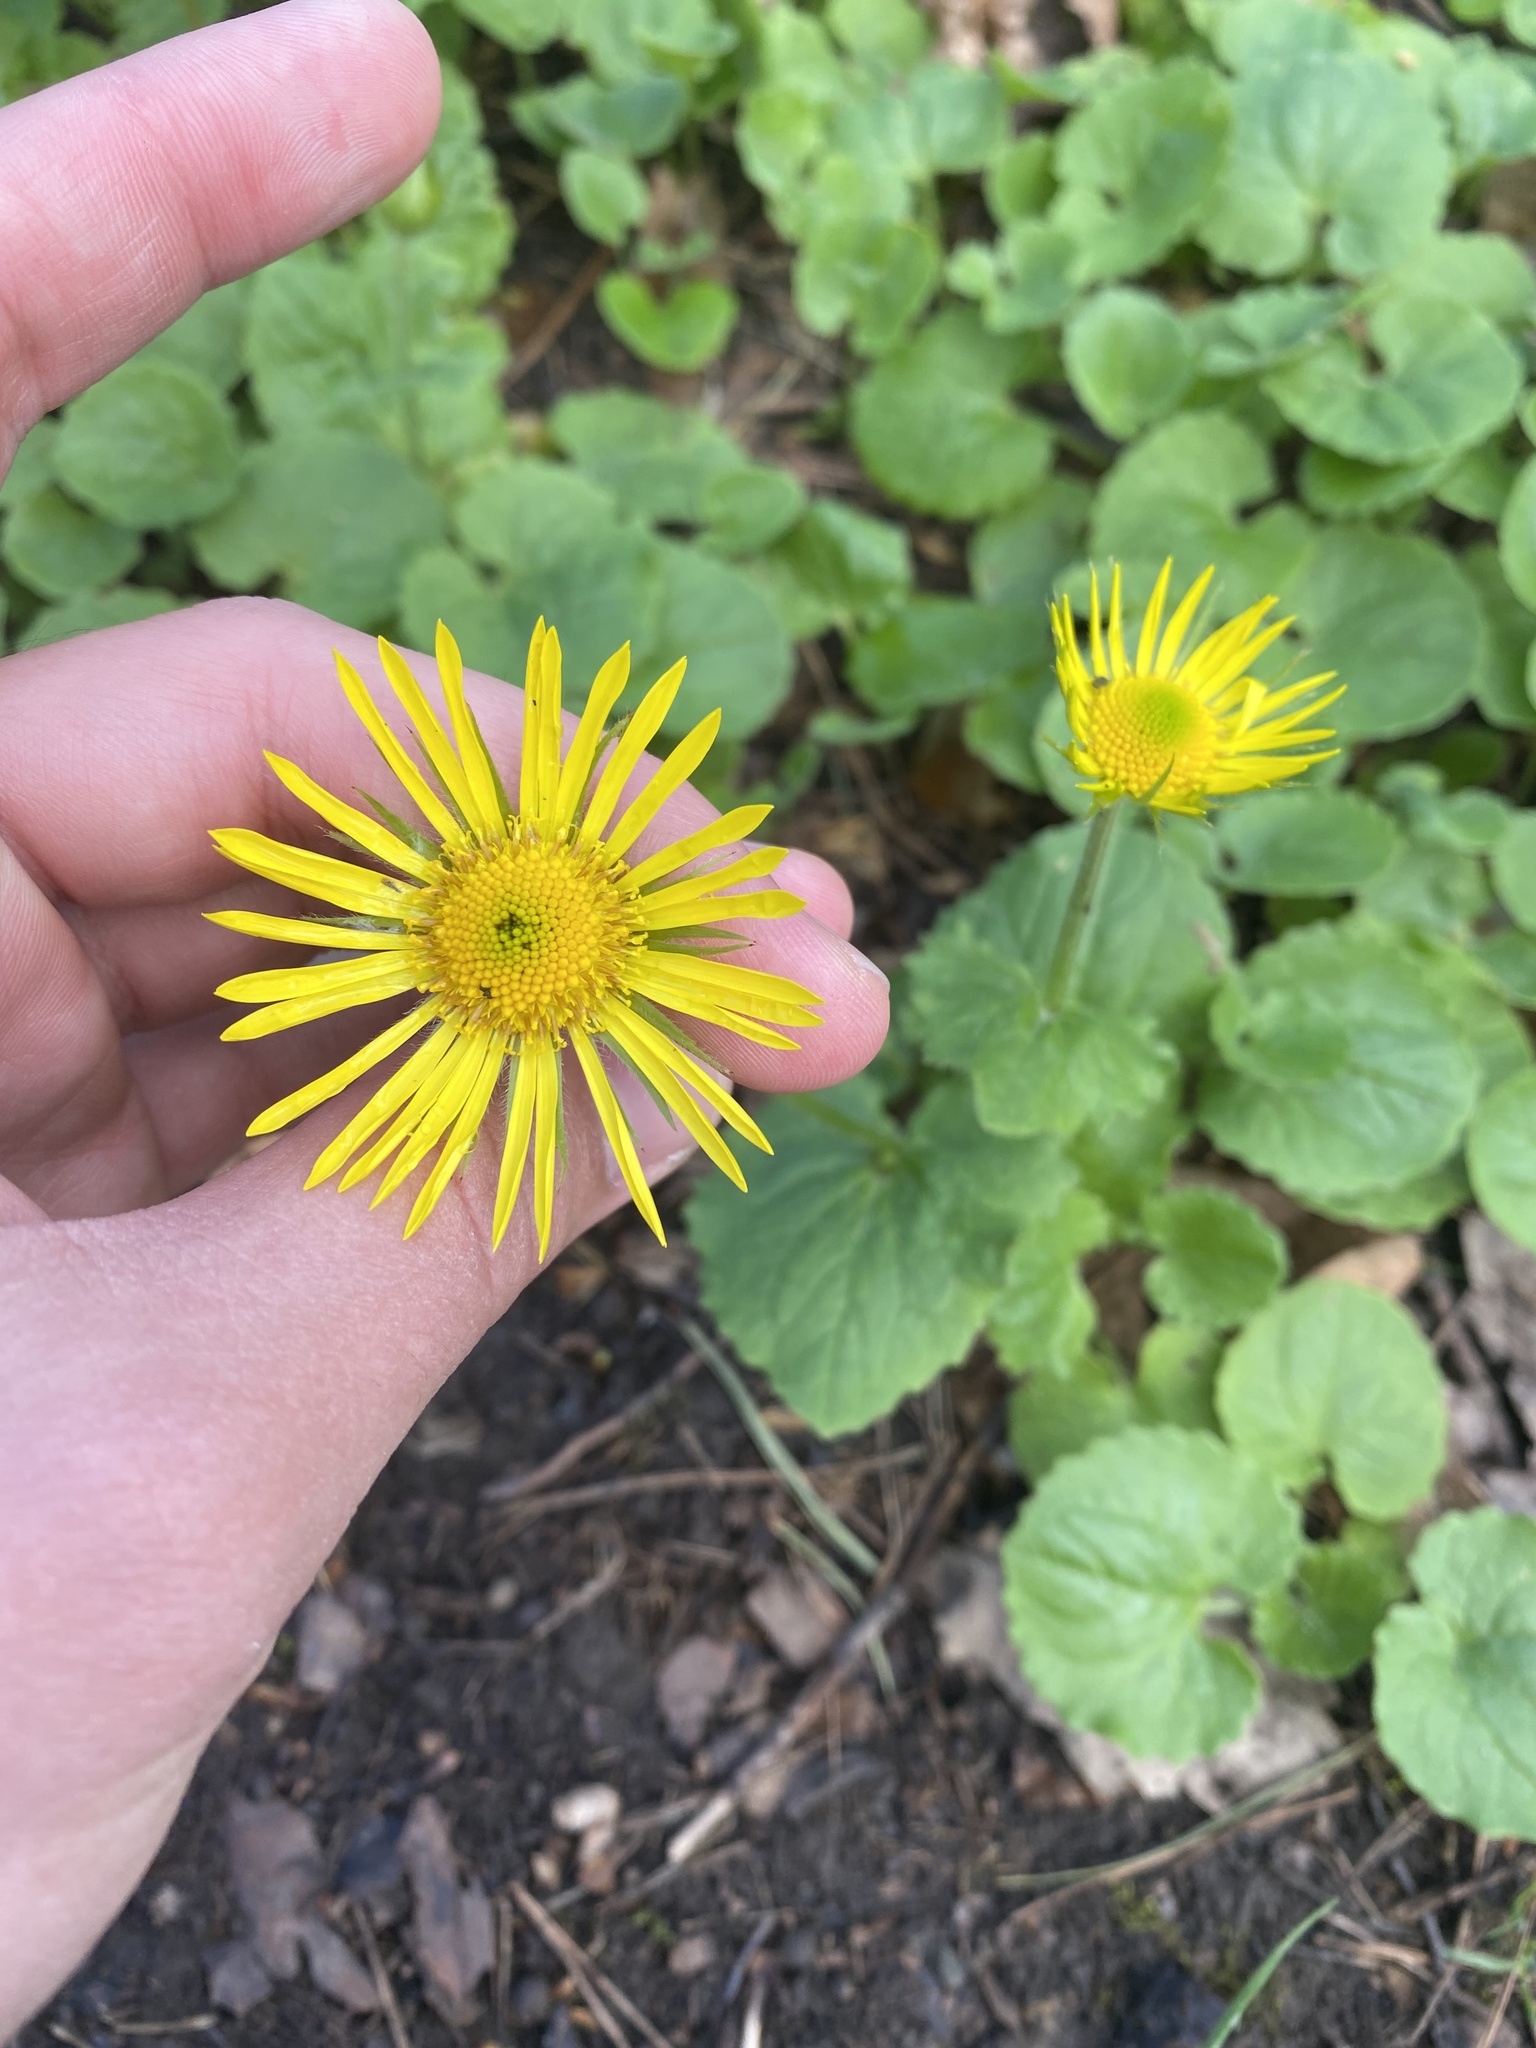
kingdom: Plantae
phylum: Tracheophyta
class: Magnoliopsida
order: Asterales
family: Asteraceae
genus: Doronicum
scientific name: Doronicum
